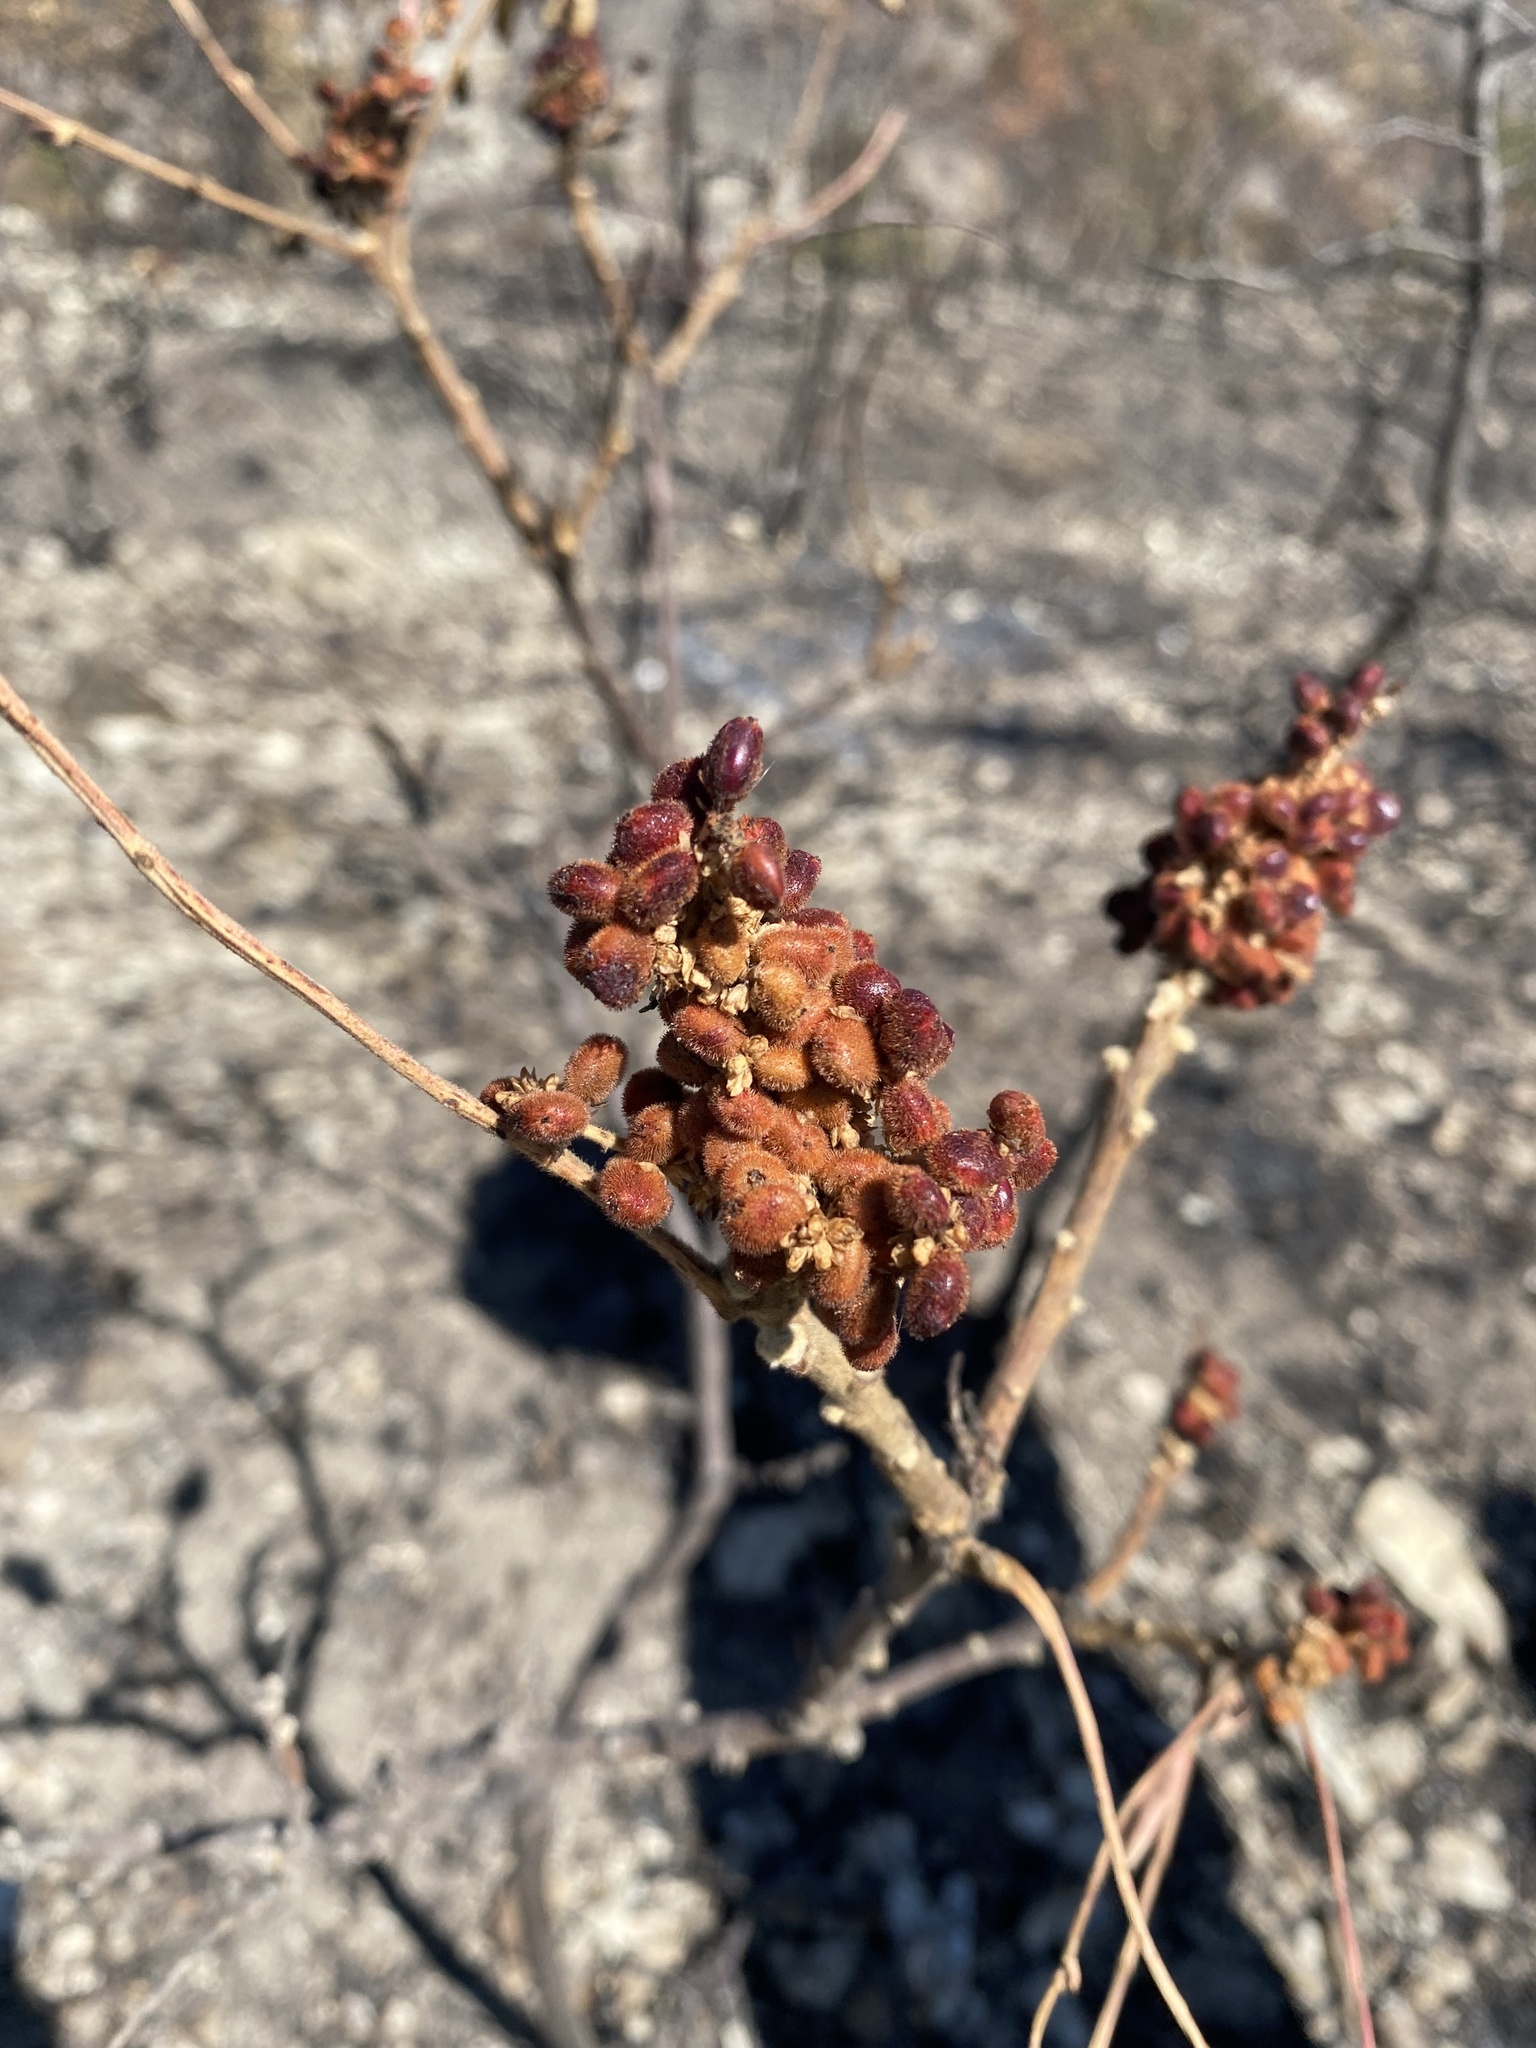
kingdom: Plantae
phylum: Tracheophyta
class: Magnoliopsida
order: Sapindales
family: Anacardiaceae
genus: Rhus
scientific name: Rhus coriaria
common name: Tanner's sumach
